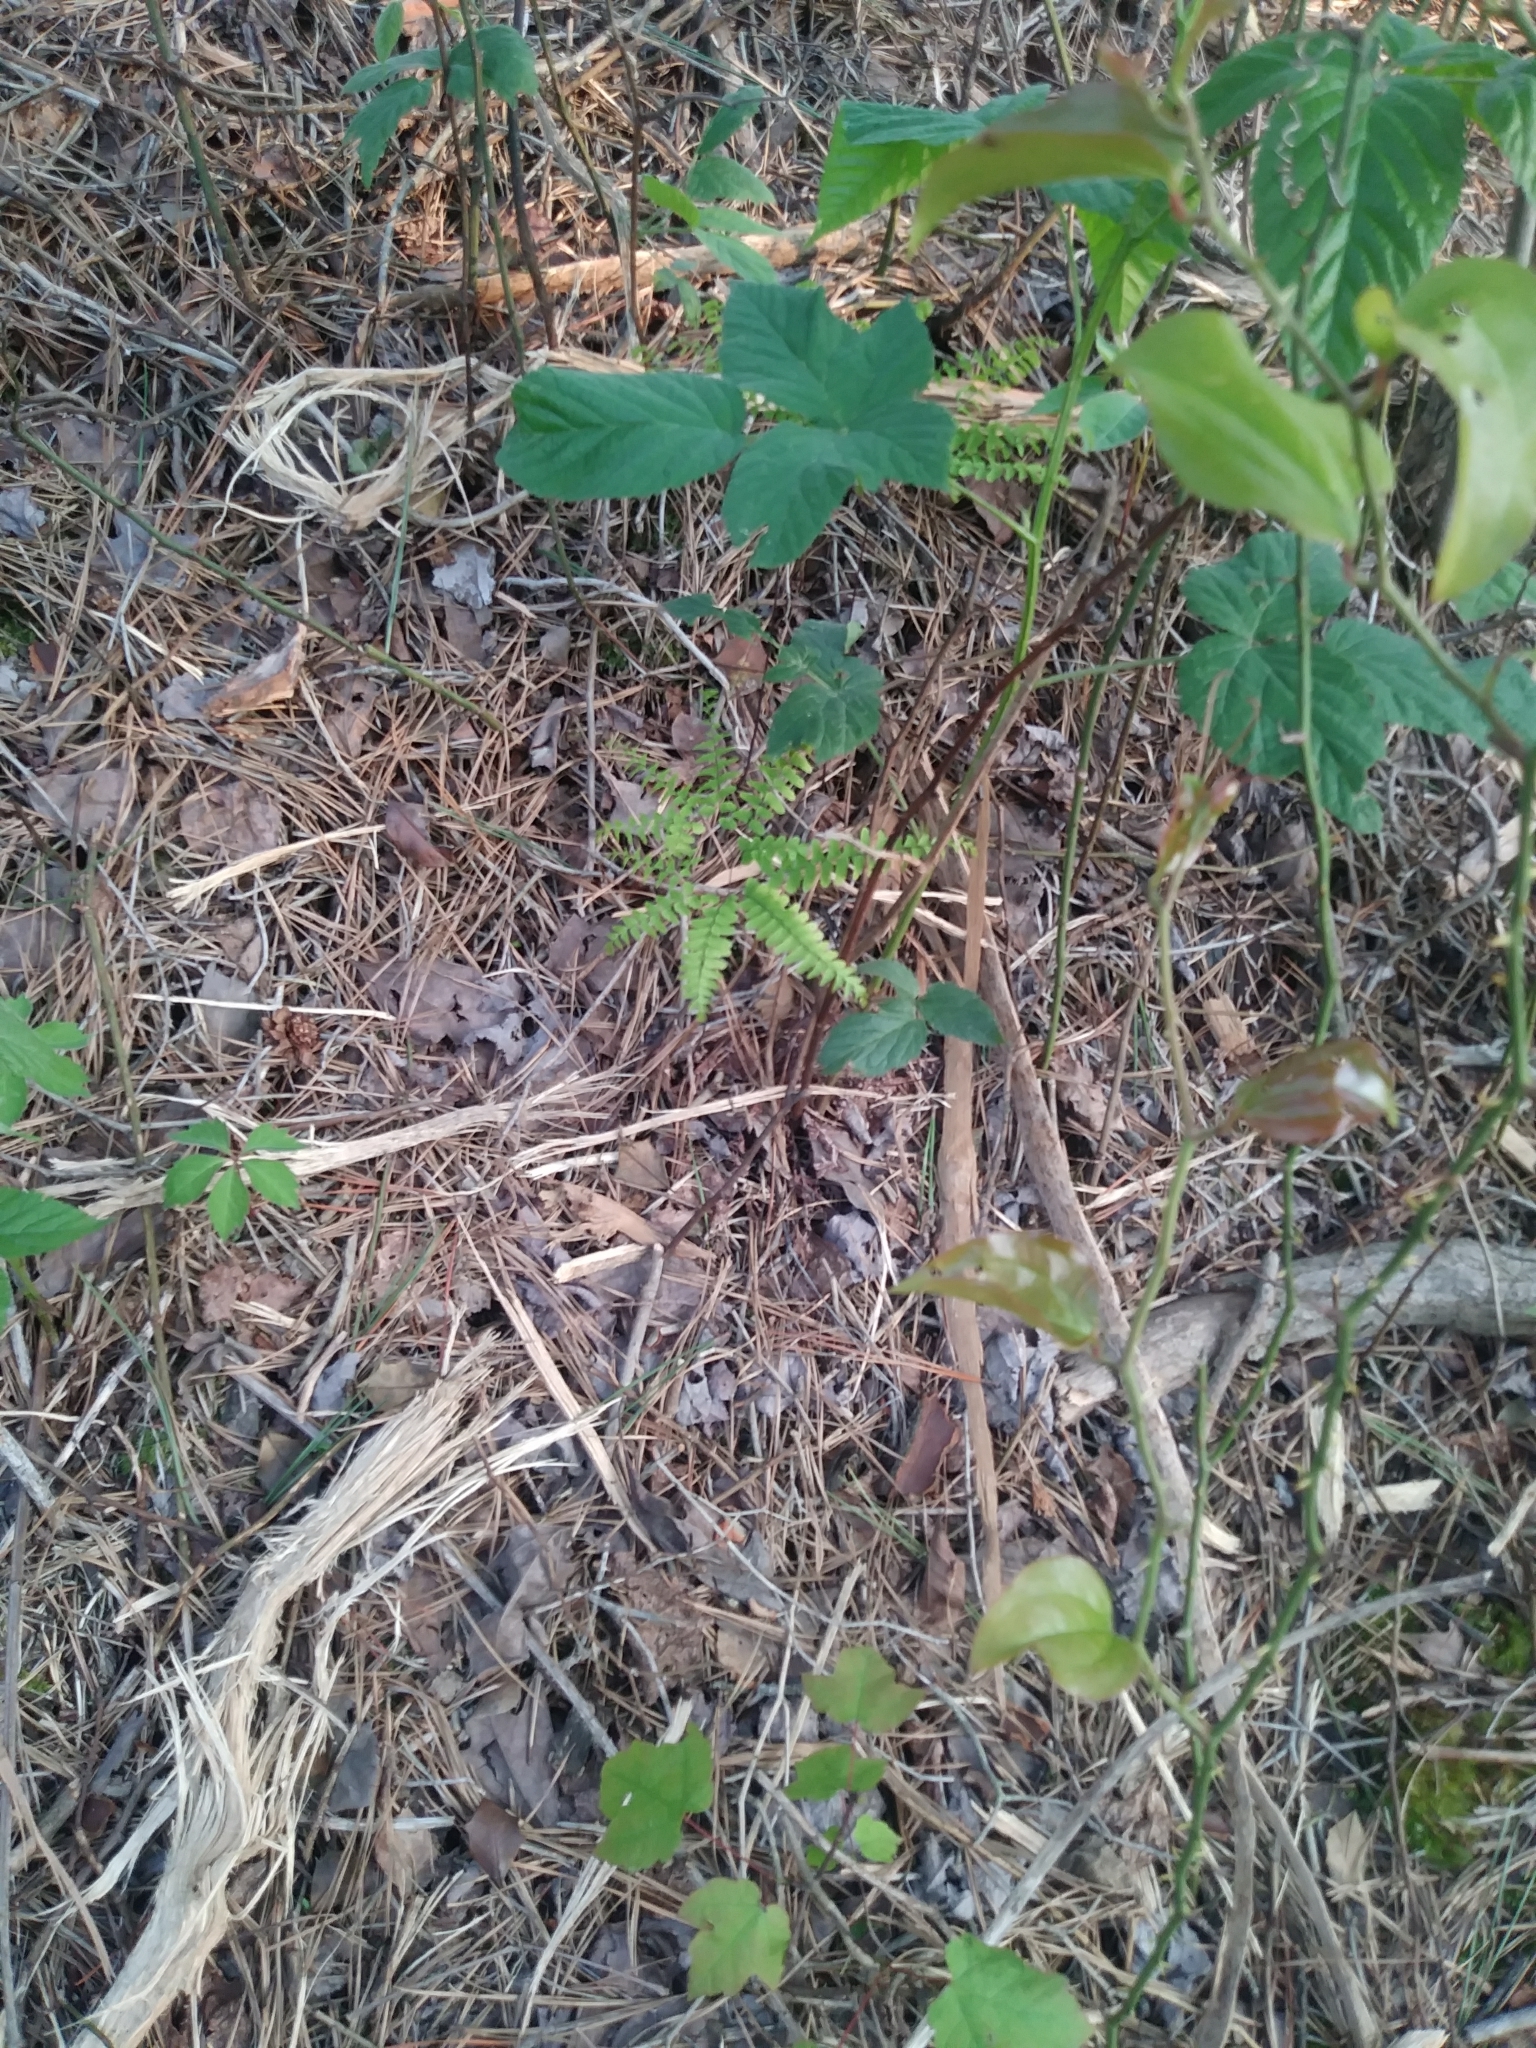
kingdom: Plantae
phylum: Tracheophyta
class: Polypodiopsida
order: Polypodiales
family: Pteridaceae
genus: Adiantum
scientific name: Adiantum pedatum
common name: Five-finger fern
